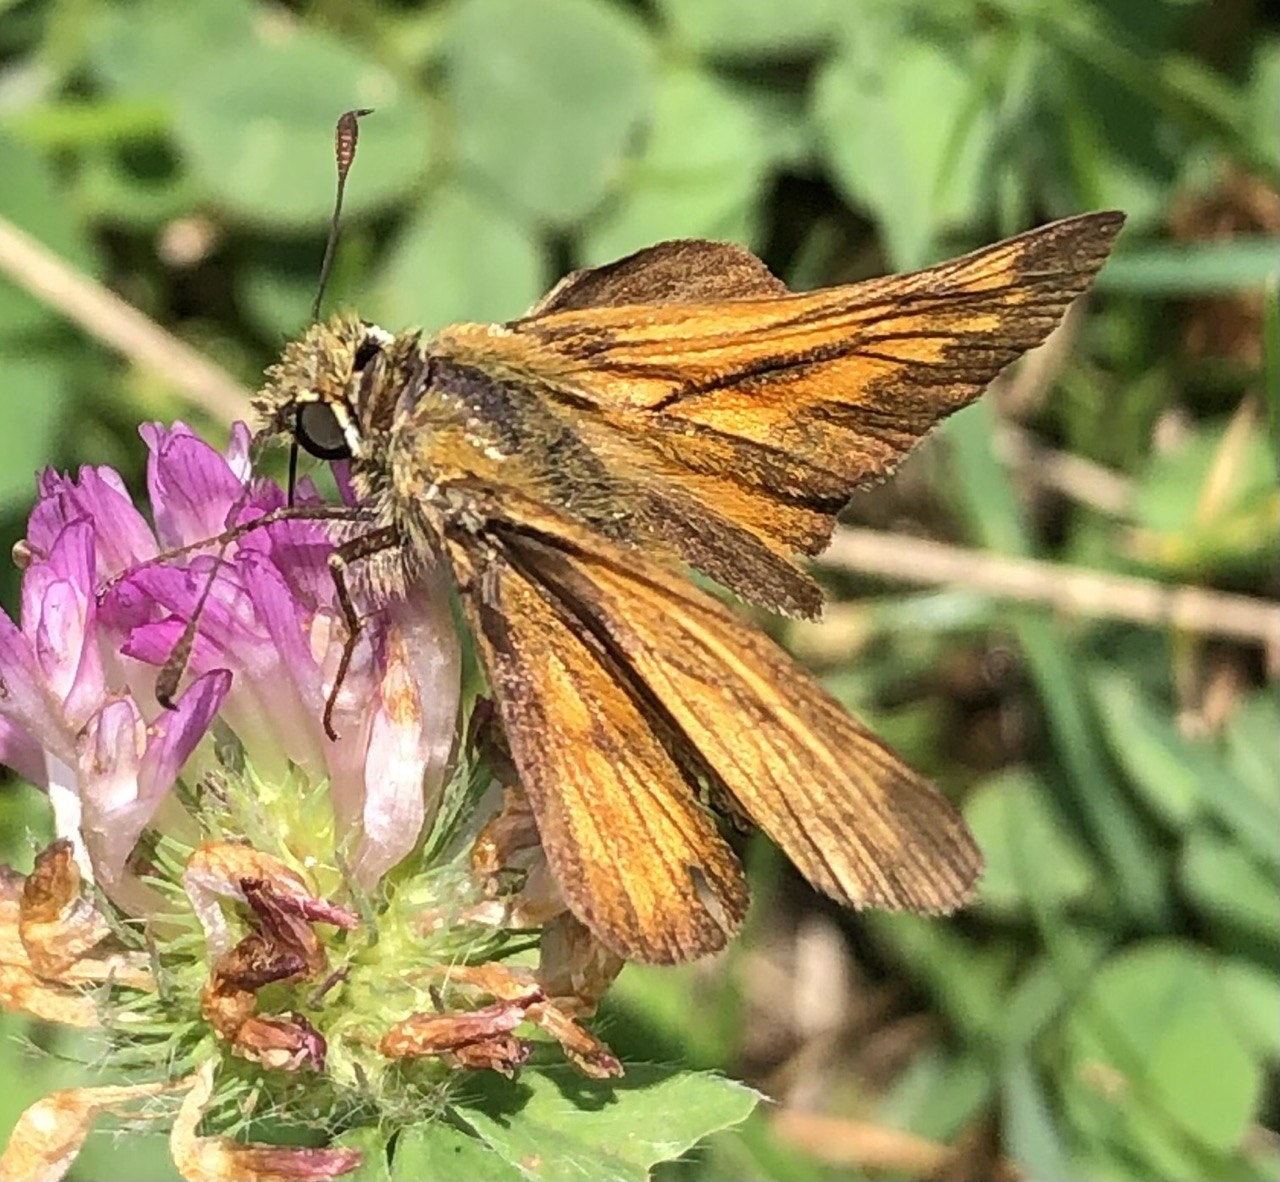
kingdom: Animalia
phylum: Arthropoda
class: Insecta
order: Lepidoptera
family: Hesperiidae
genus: Ochlodes
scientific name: Ochlodes venata
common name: Large skipper
